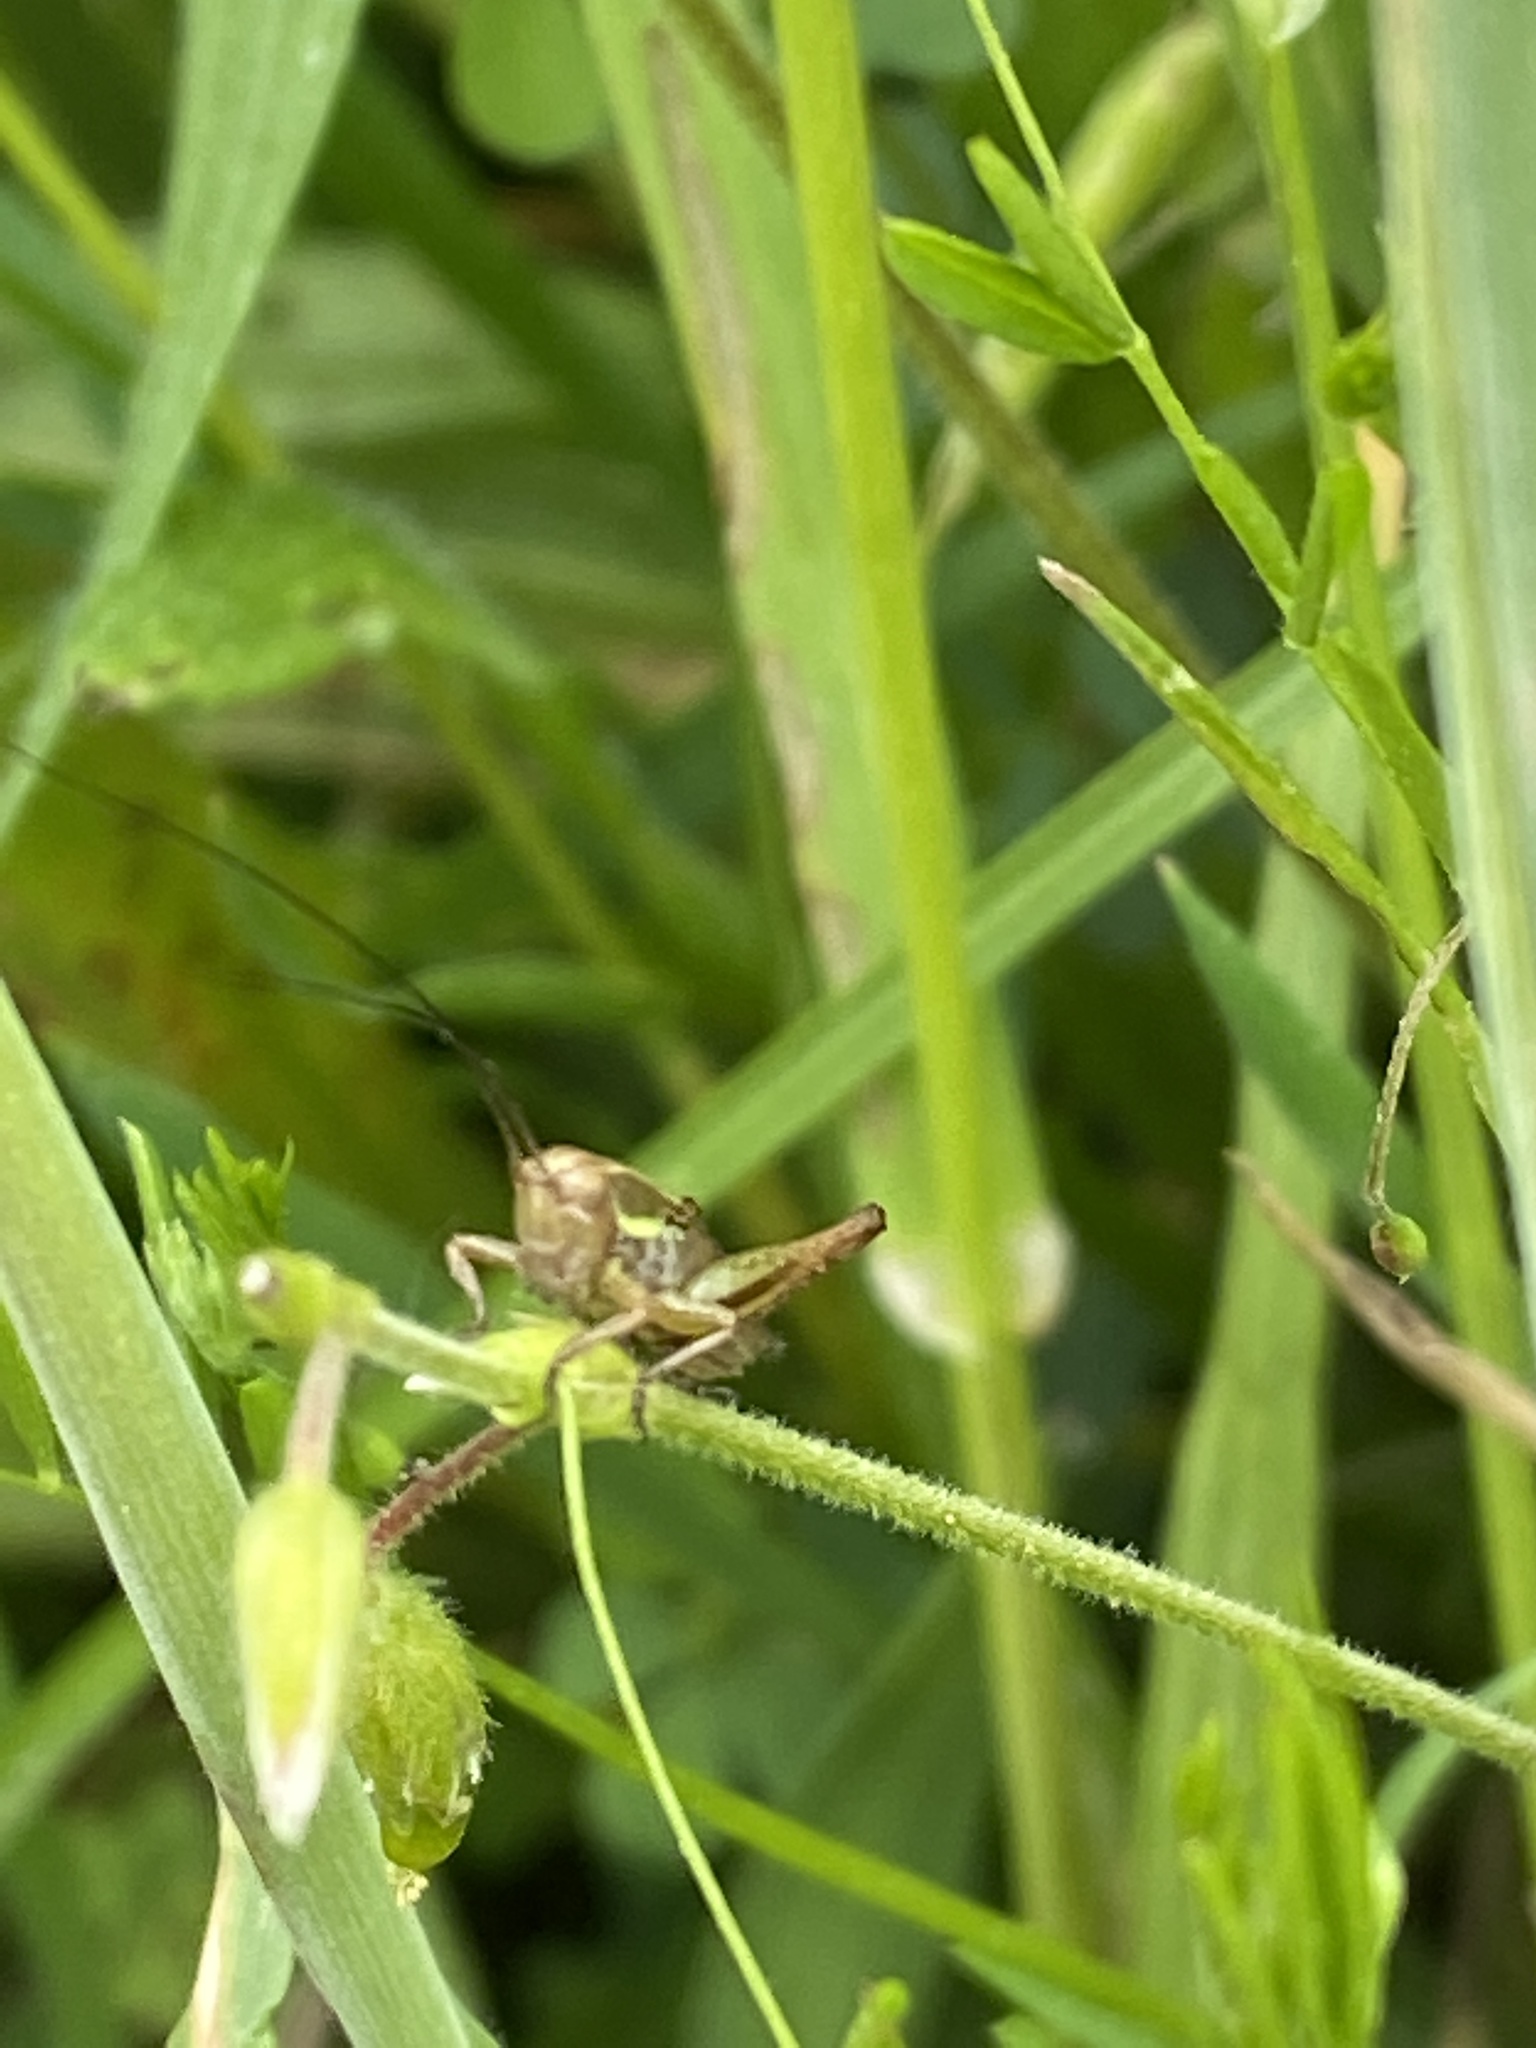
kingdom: Animalia
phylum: Arthropoda
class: Insecta
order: Orthoptera
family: Tettigoniidae
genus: Roeseliana
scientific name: Roeseliana roeselii
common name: Roesel's bush cricket
